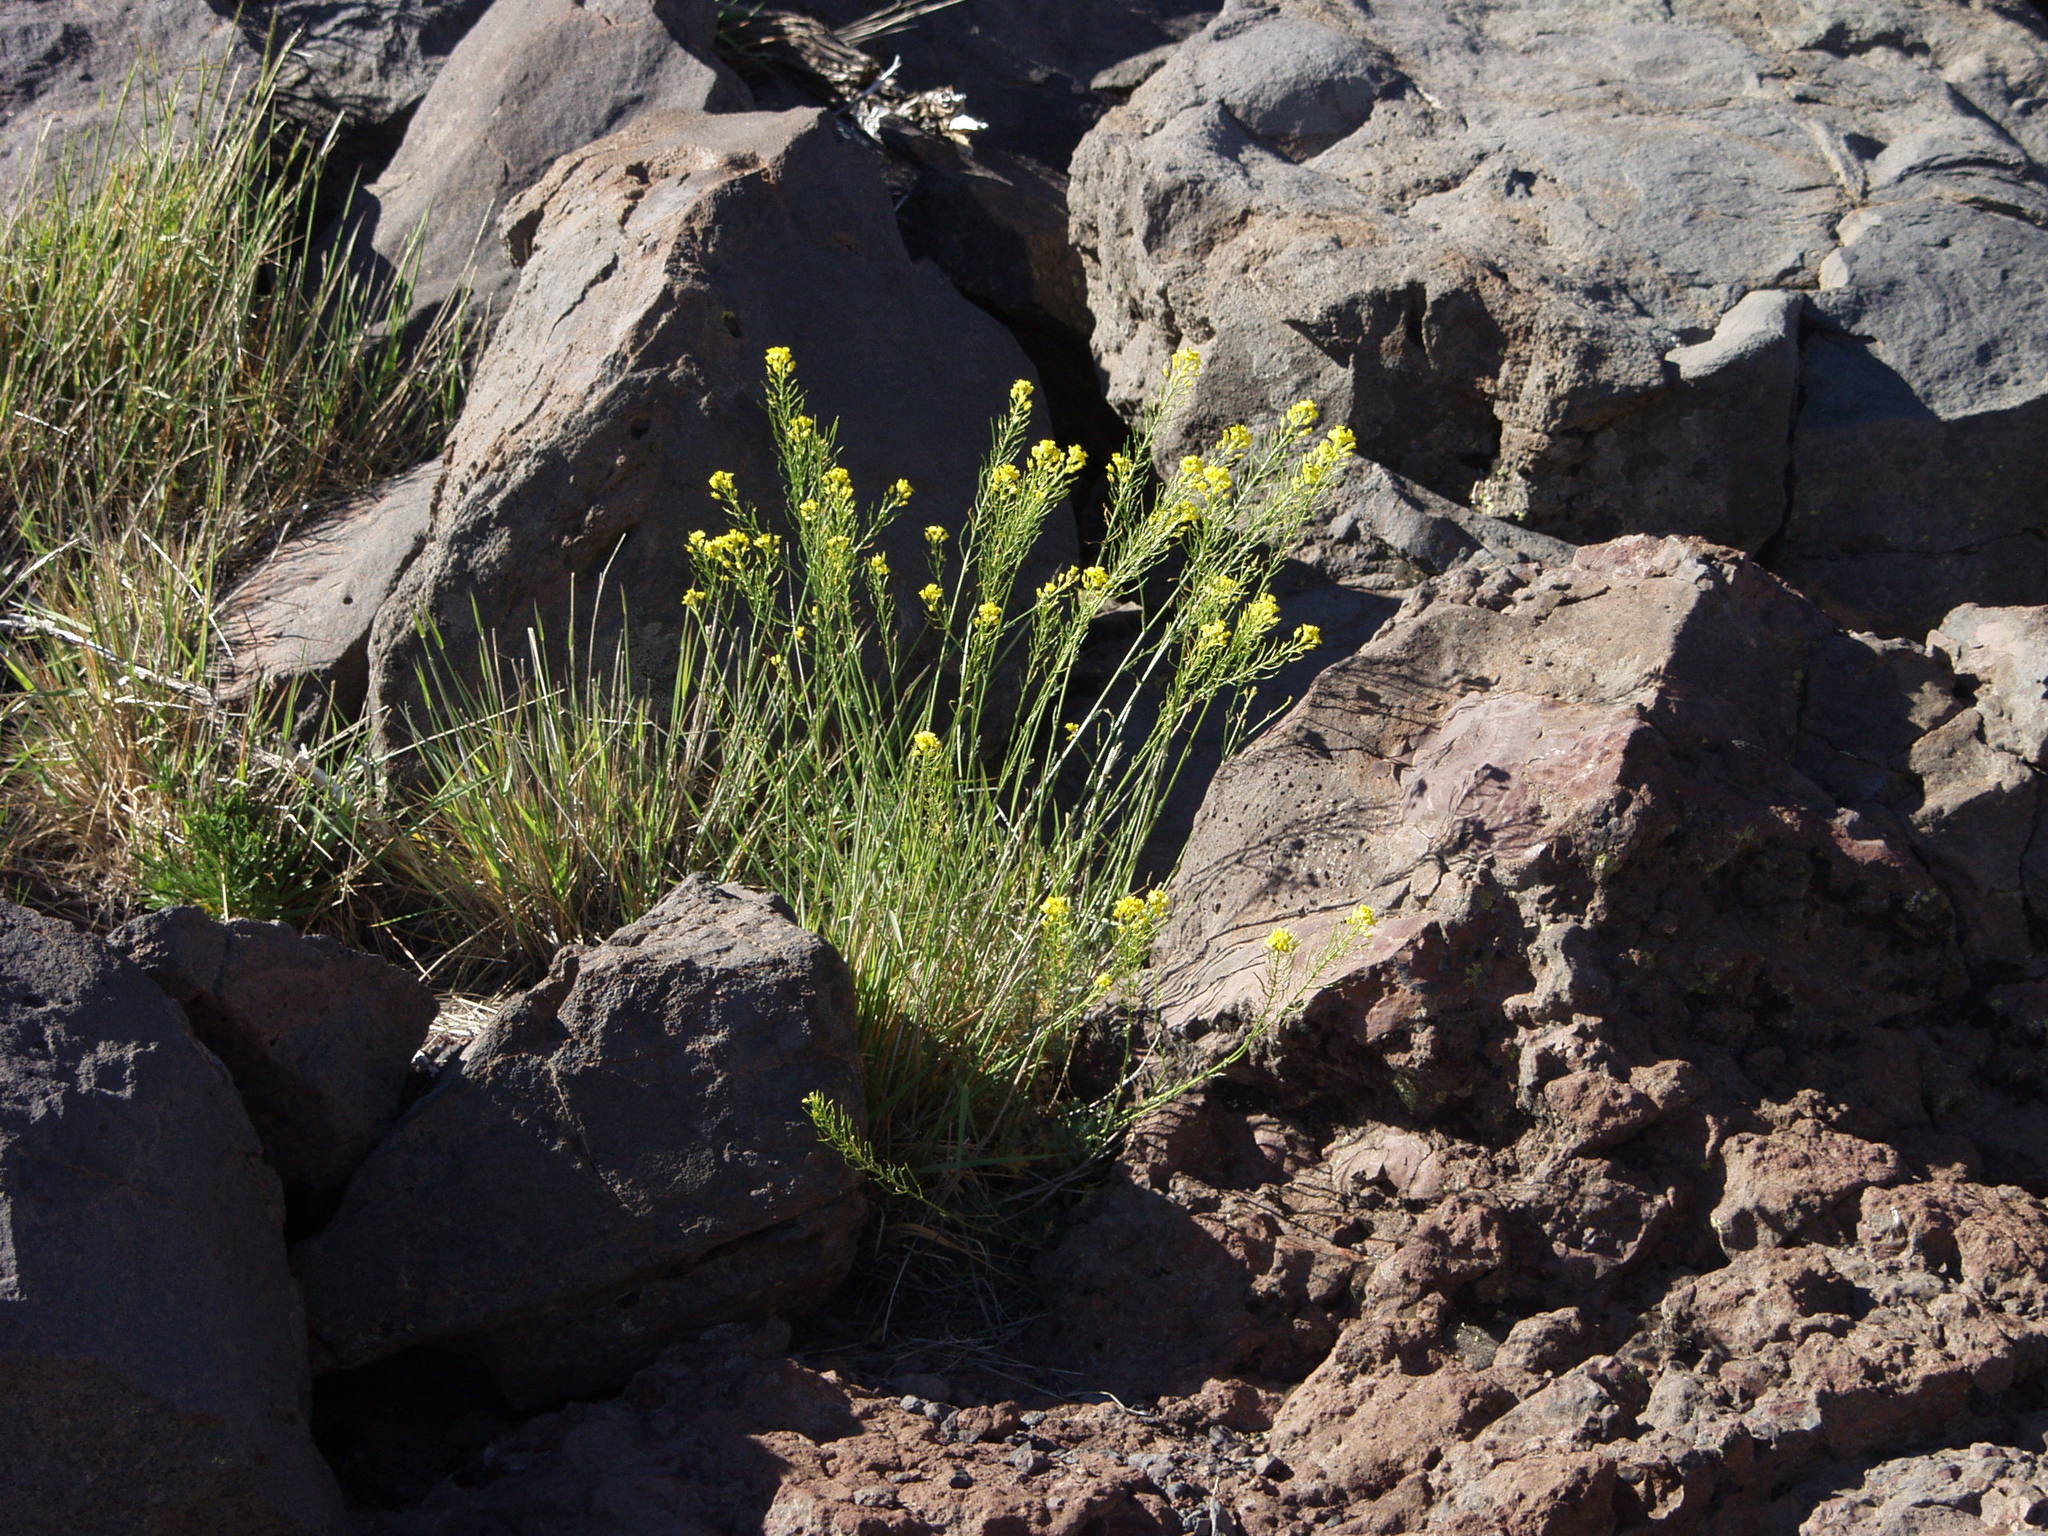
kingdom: Plantae
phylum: Tracheophyta
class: Magnoliopsida
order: Brassicales
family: Brassicaceae
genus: Descurainia
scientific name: Descurainia gilva
